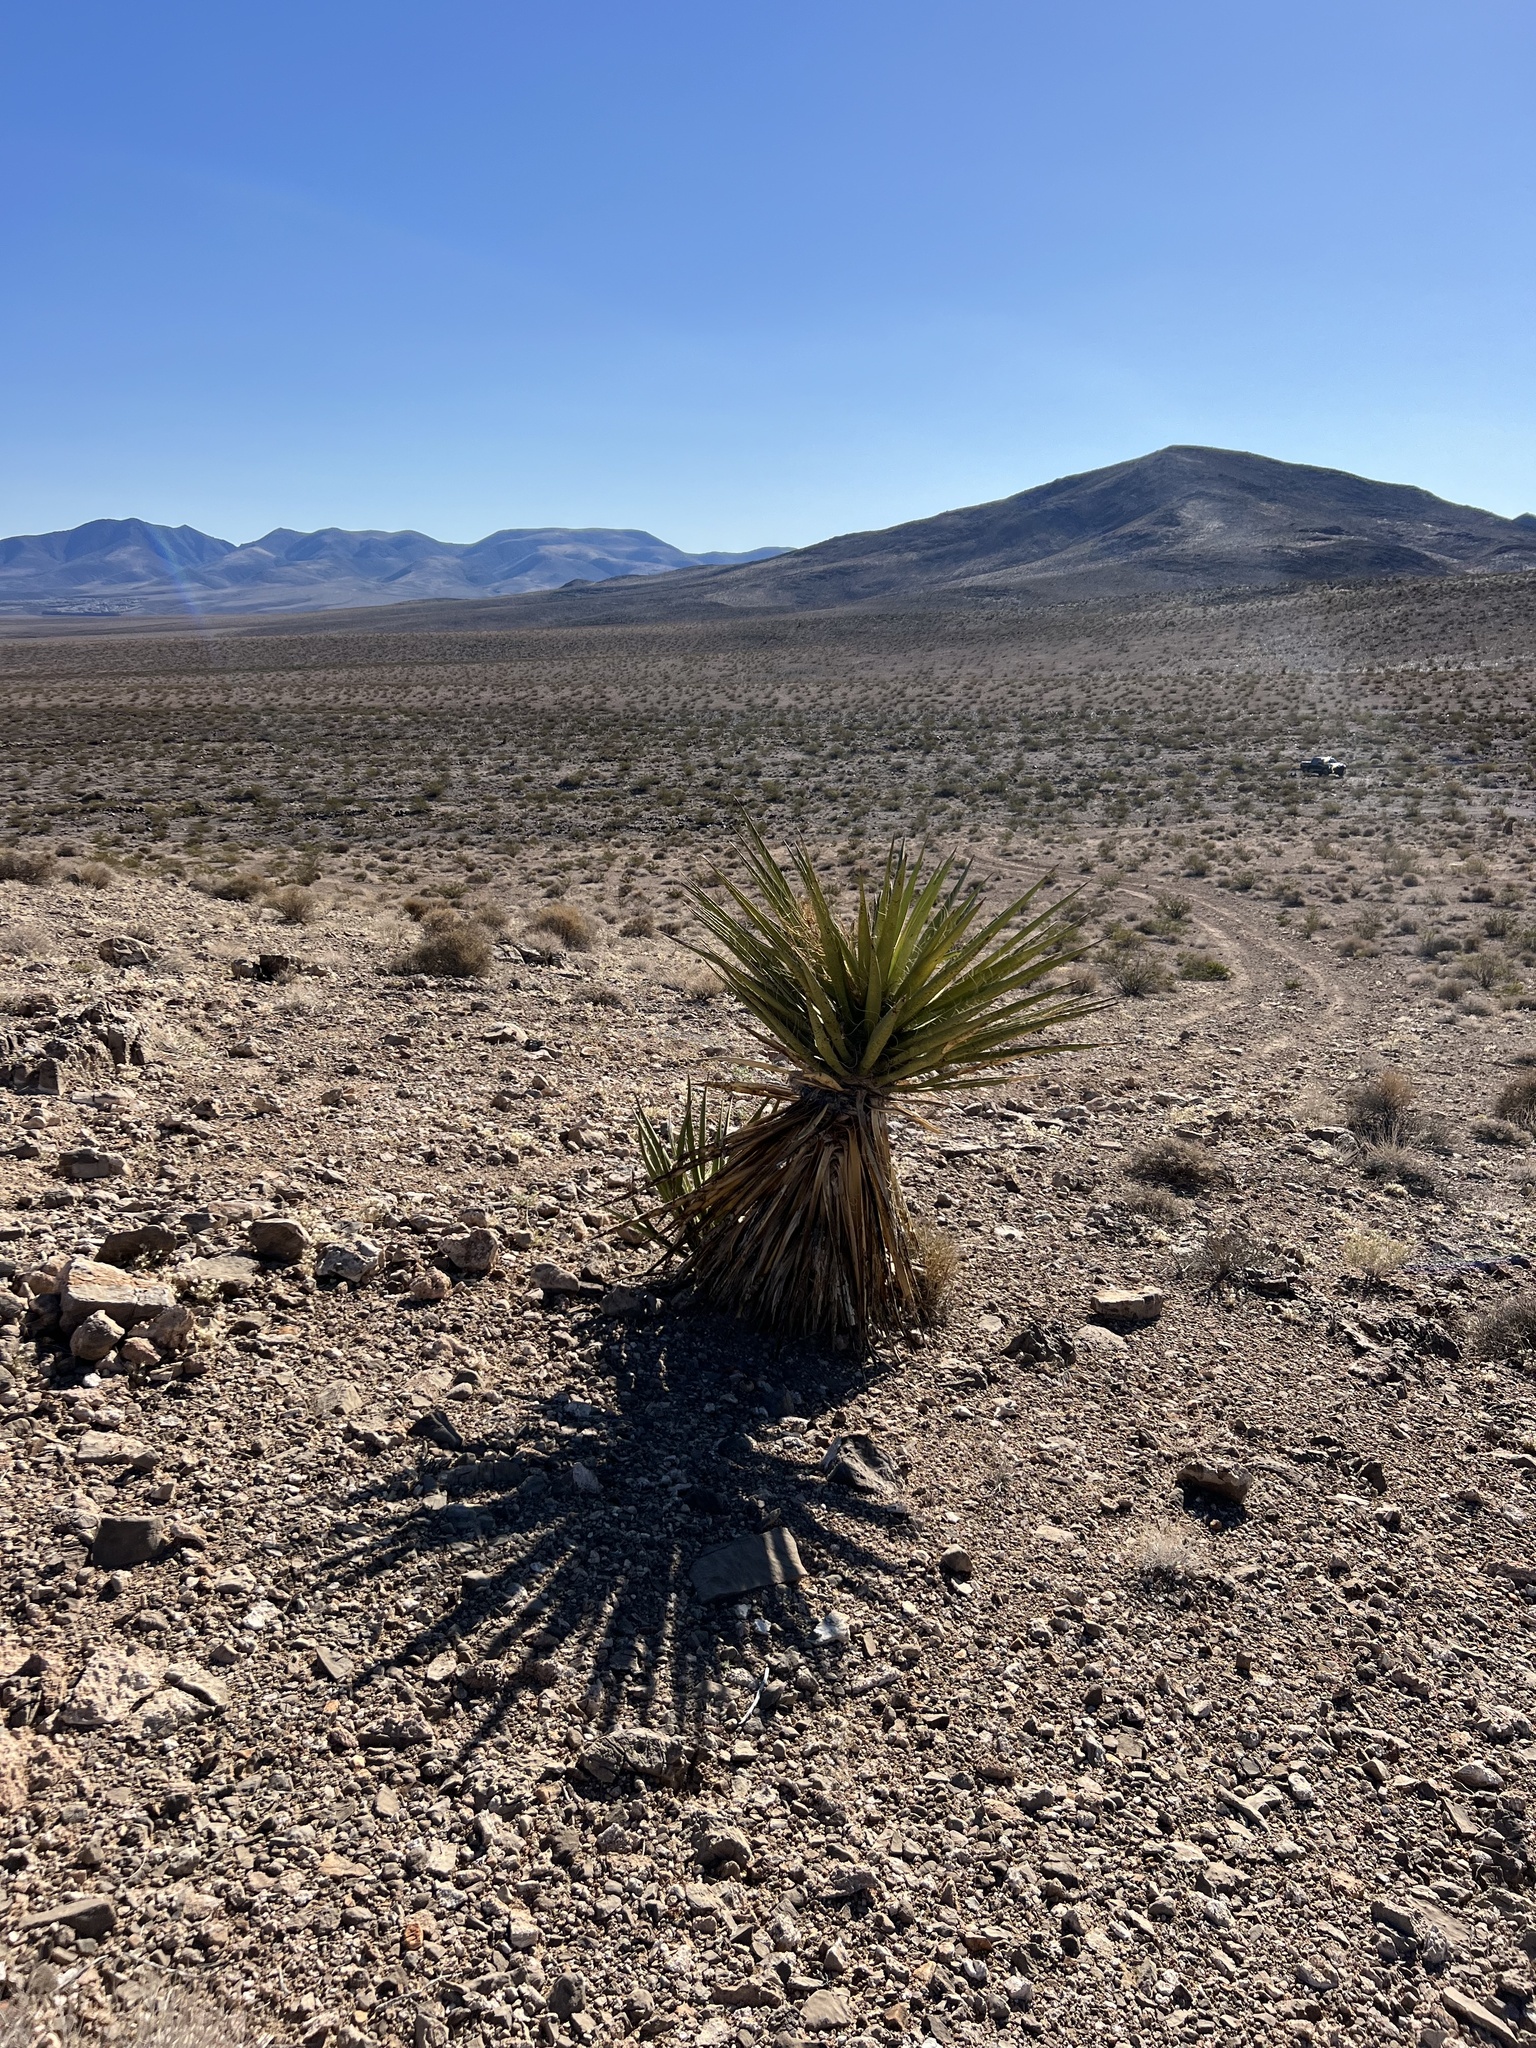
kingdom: Plantae
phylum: Tracheophyta
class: Liliopsida
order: Asparagales
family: Asparagaceae
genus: Yucca
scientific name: Yucca schidigera
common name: Mojave yucca
